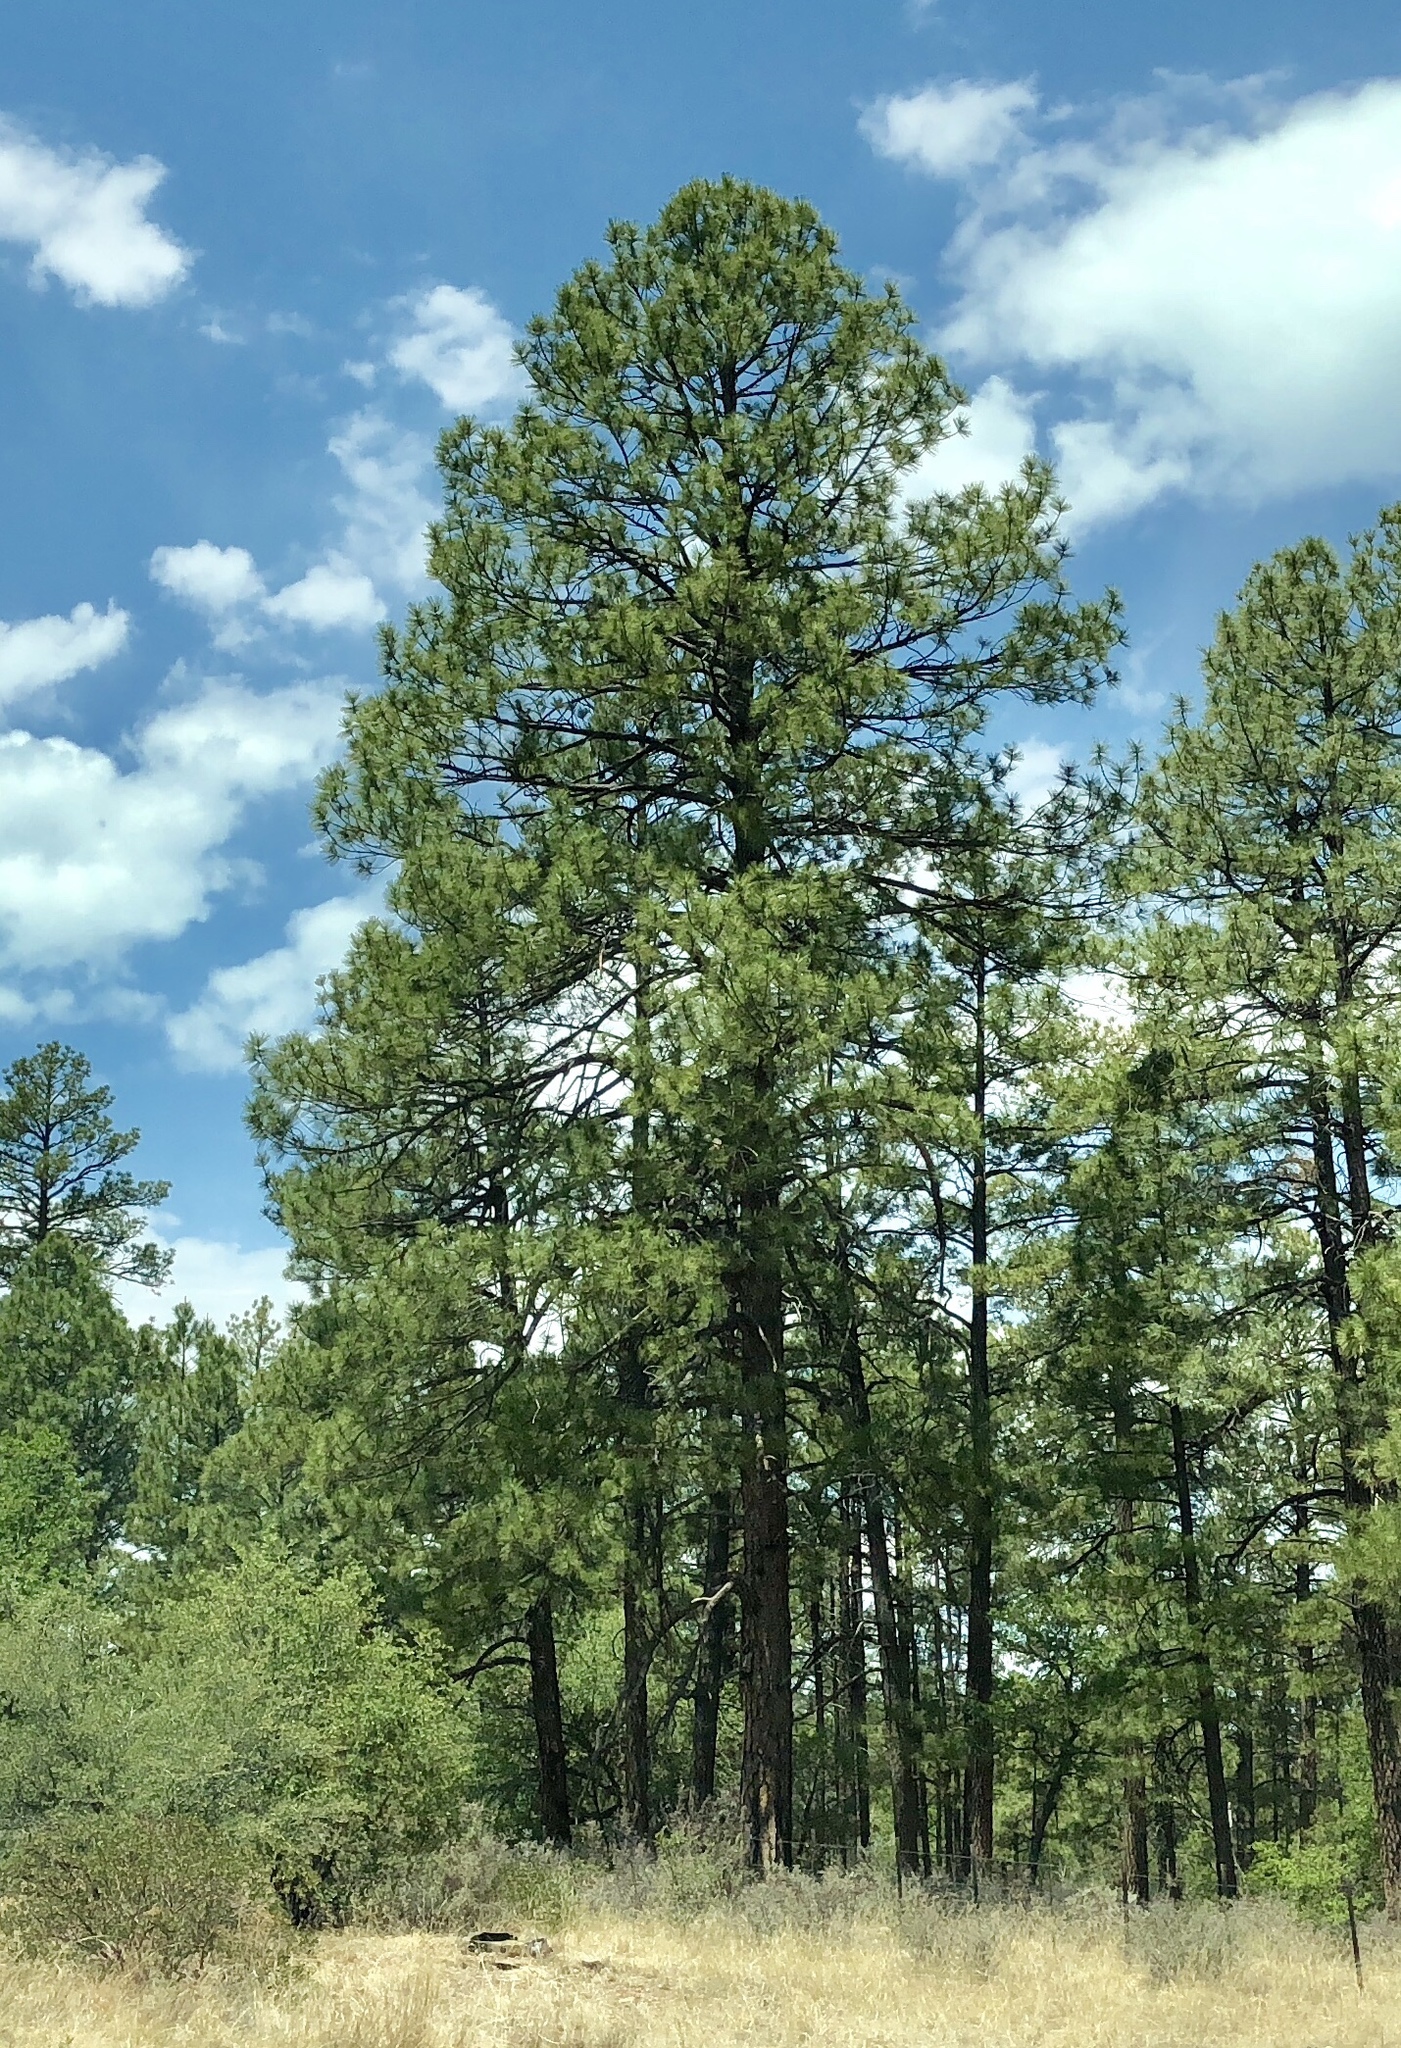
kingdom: Plantae
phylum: Tracheophyta
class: Pinopsida
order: Pinales
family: Pinaceae
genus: Pinus
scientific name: Pinus ponderosa
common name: Western yellow-pine
